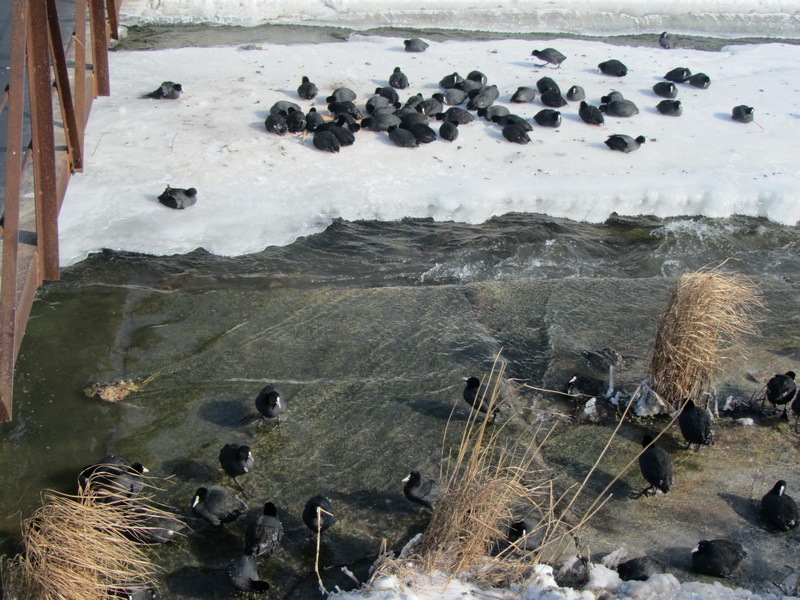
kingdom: Animalia
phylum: Chordata
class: Aves
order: Gruiformes
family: Rallidae
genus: Fulica
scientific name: Fulica atra
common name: Eurasian coot
